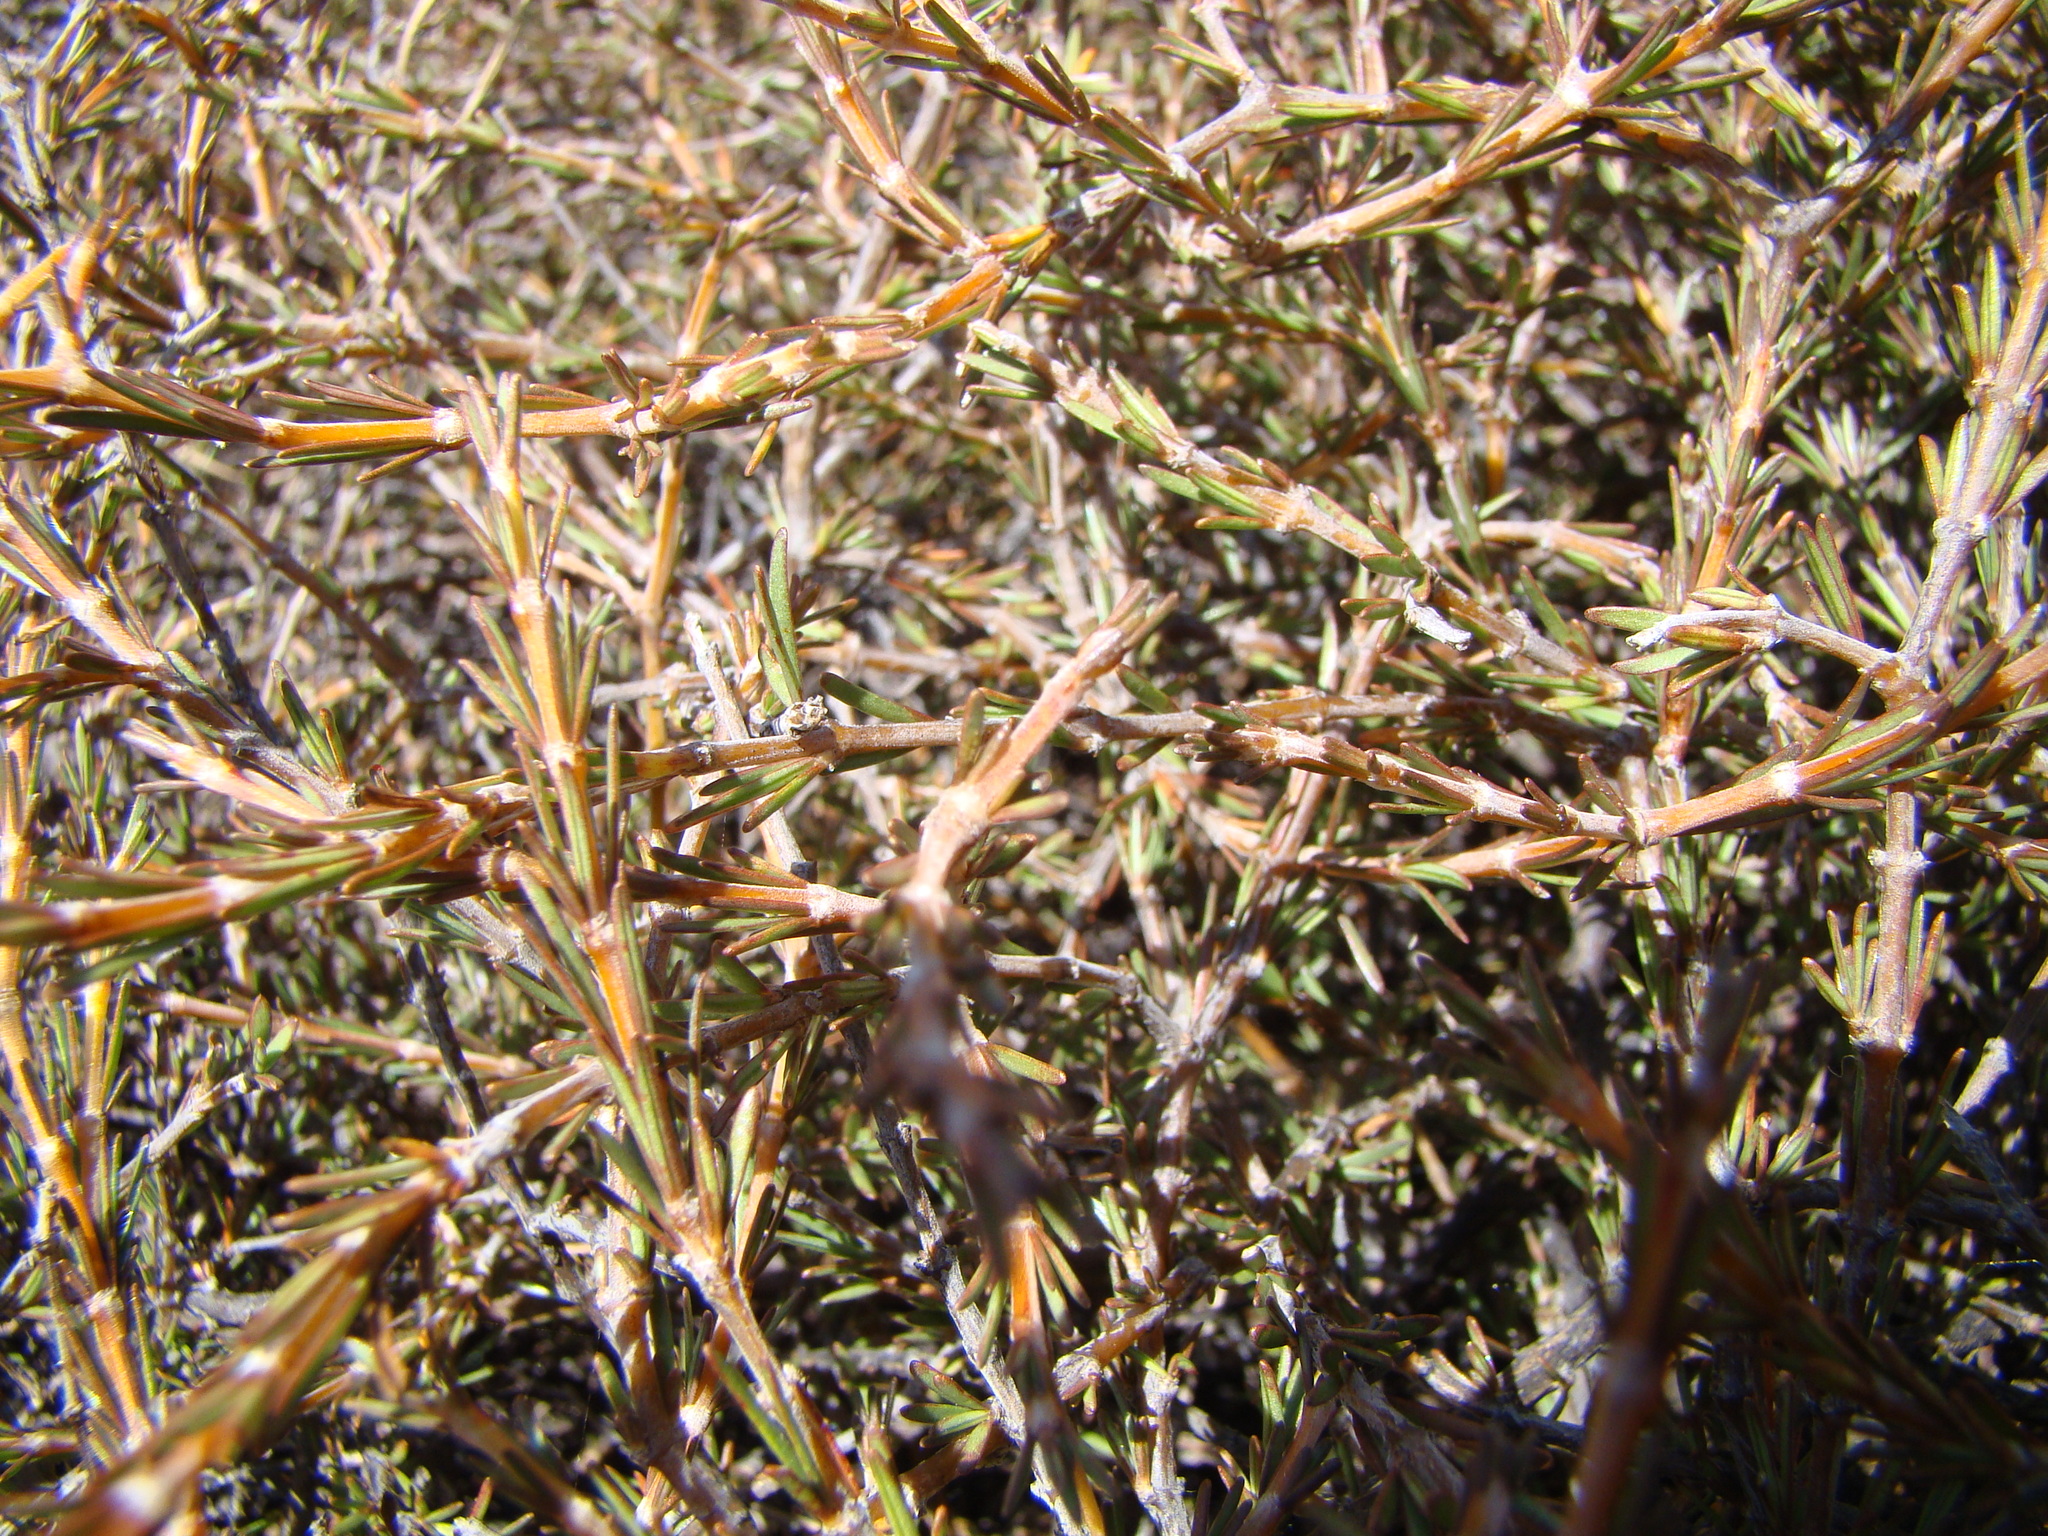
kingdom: Plantae
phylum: Tracheophyta
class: Magnoliopsida
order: Gentianales
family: Rubiaceae
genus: Coprosma
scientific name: Coprosma acerosa
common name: Sand coprosma
